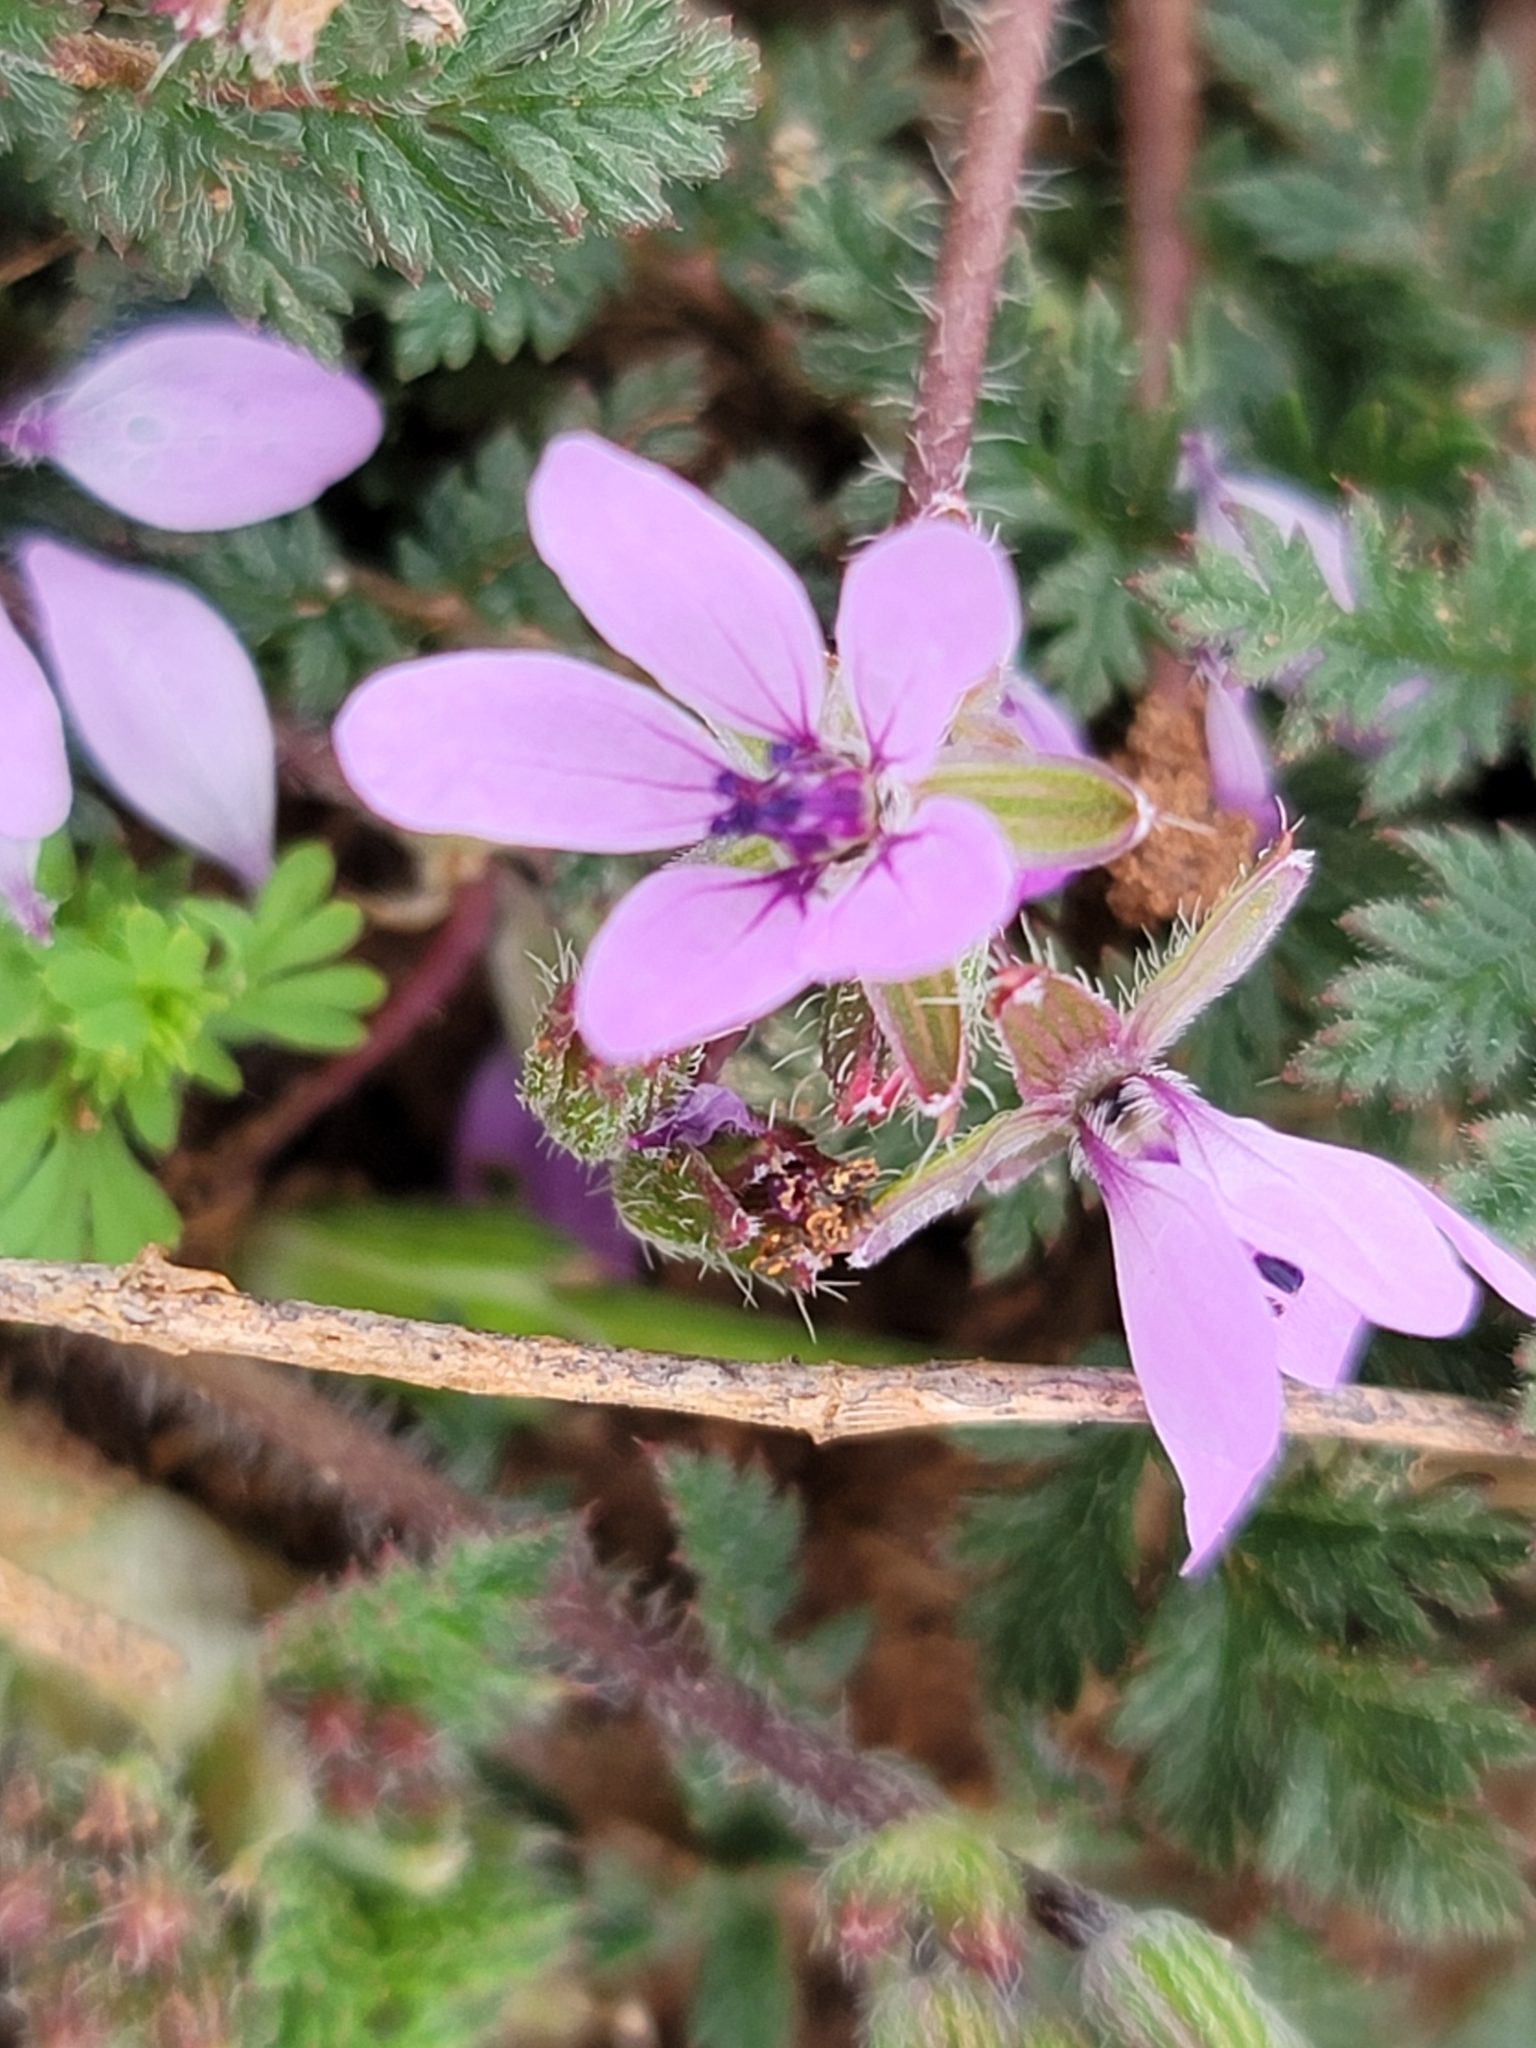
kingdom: Plantae
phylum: Tracheophyta
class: Magnoliopsida
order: Geraniales
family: Geraniaceae
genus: Erodium
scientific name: Erodium cicutarium
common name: Common stork's-bill
